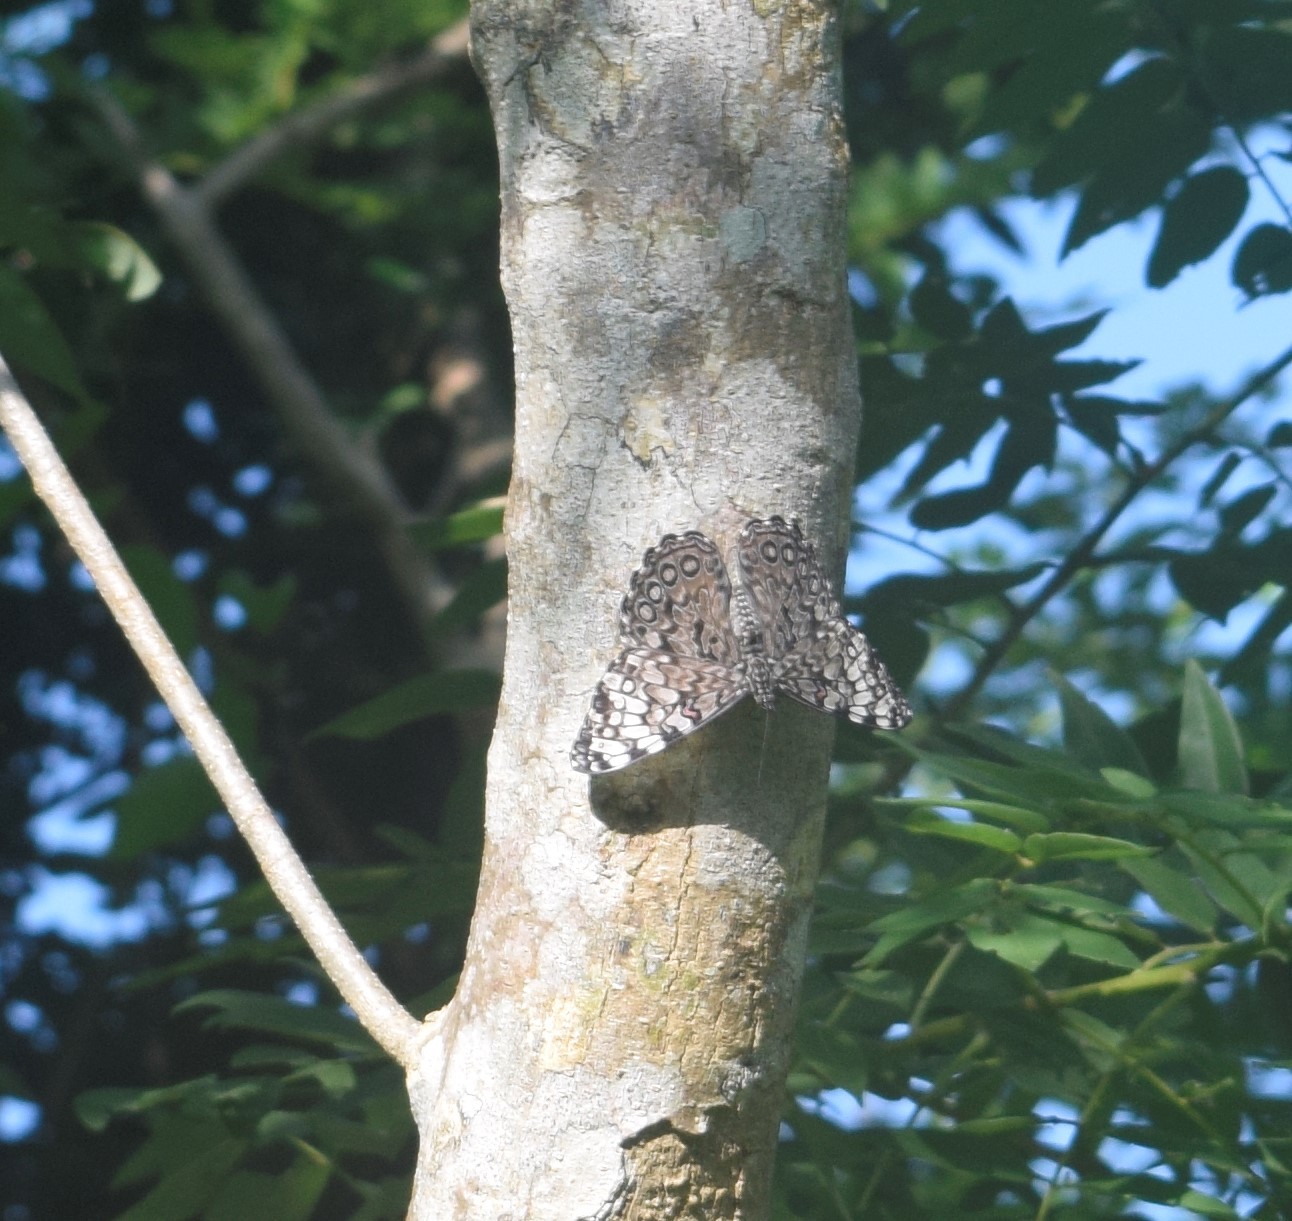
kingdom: Animalia
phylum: Arthropoda
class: Insecta
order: Lepidoptera
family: Nymphalidae
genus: Hamadryas
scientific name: Hamadryas guatemalena
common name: Guatemalan cracker
